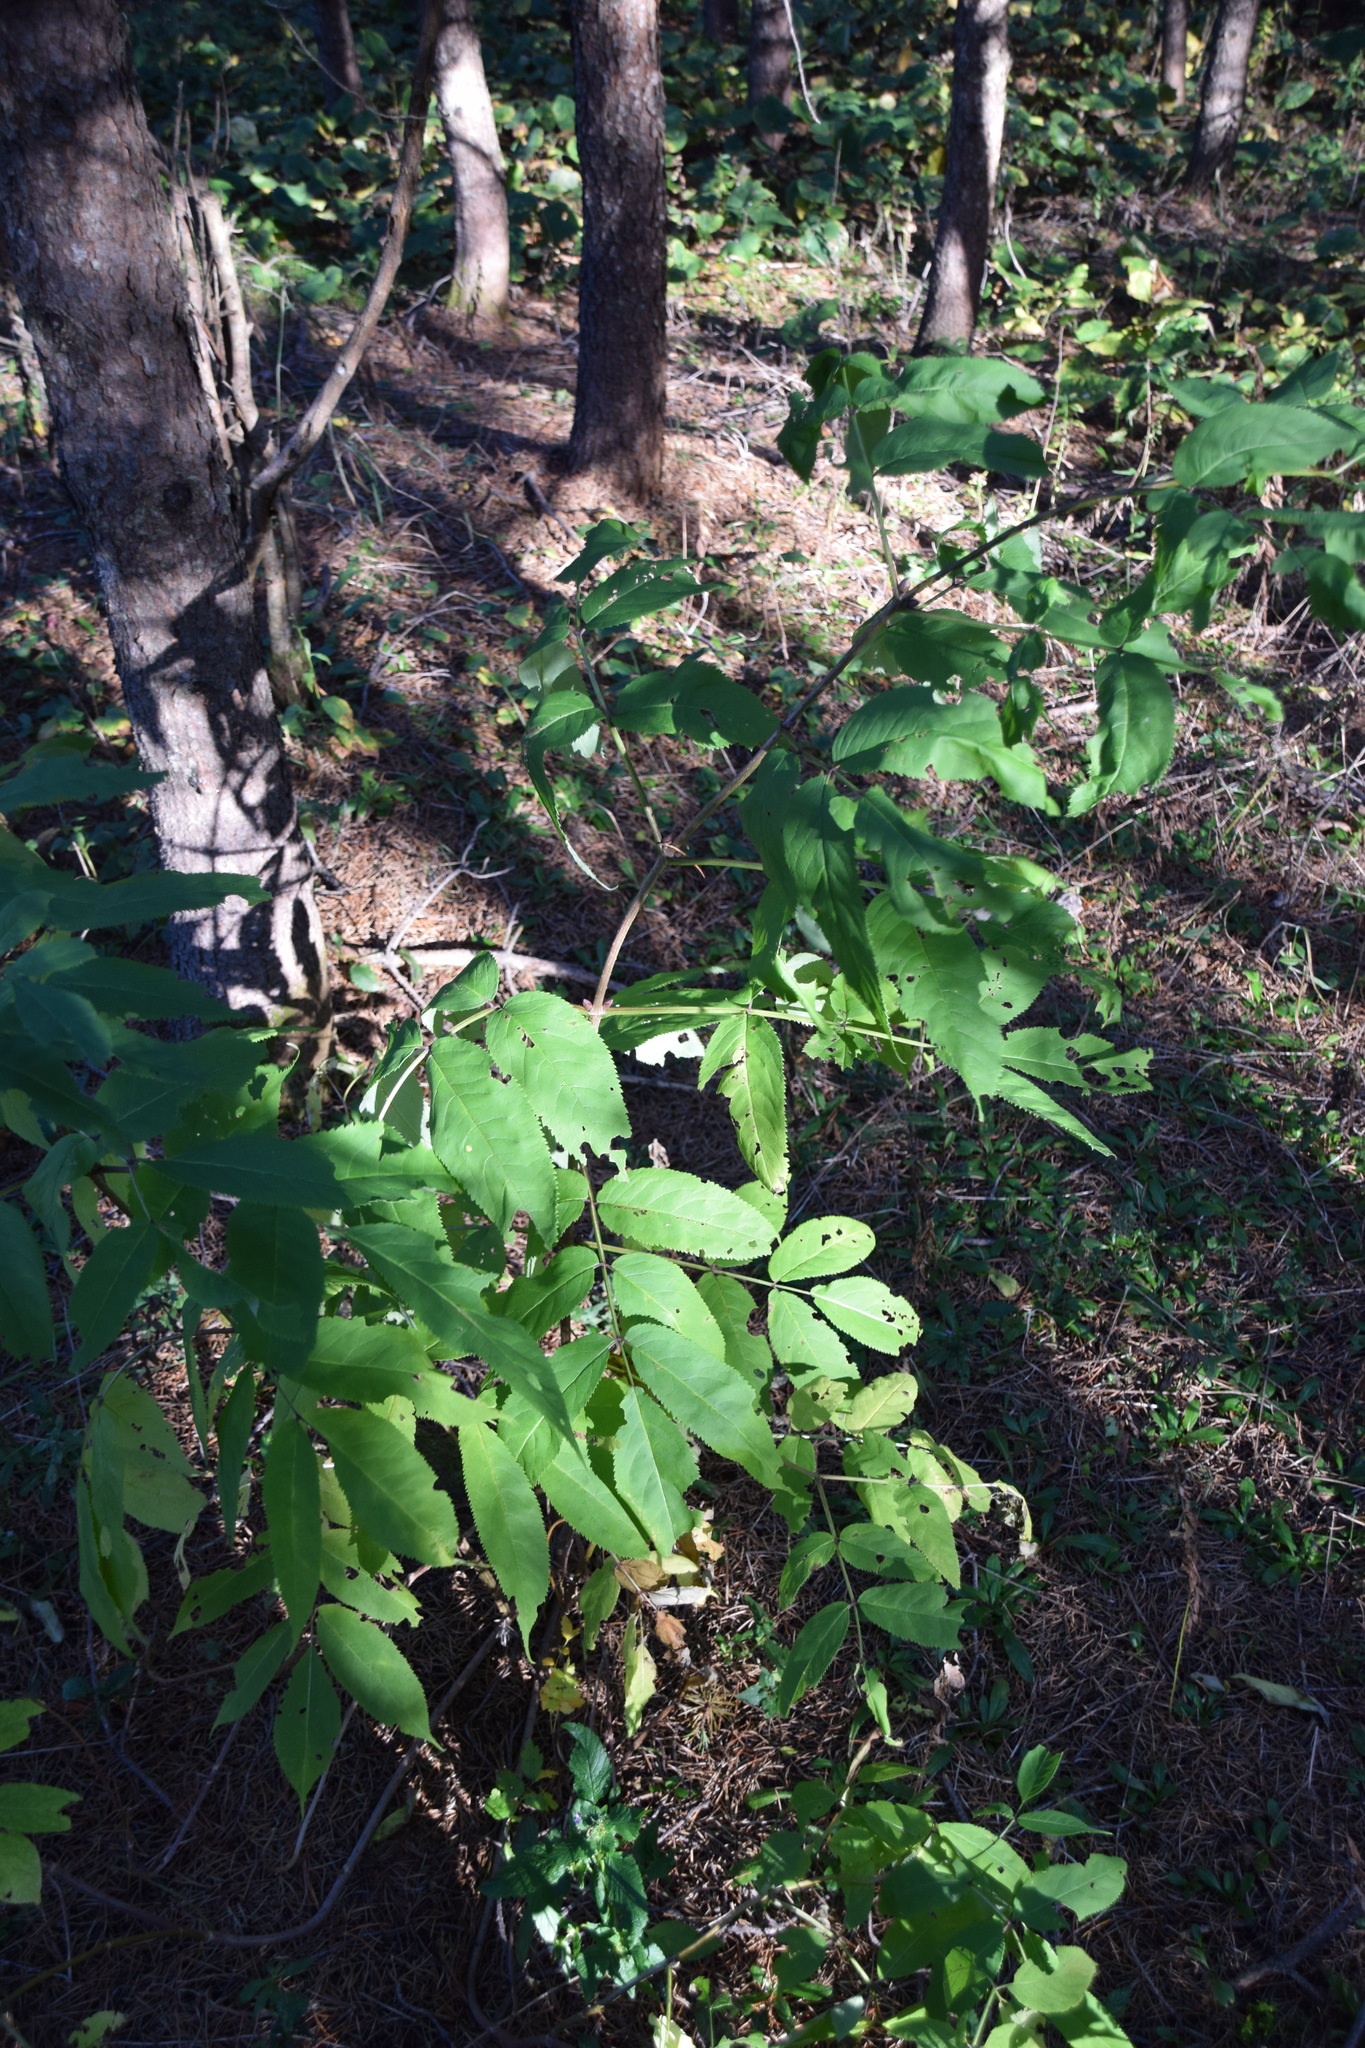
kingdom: Plantae
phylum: Tracheophyta
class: Magnoliopsida
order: Dipsacales
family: Viburnaceae
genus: Sambucus
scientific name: Sambucus racemosa
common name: Red-berried elder
